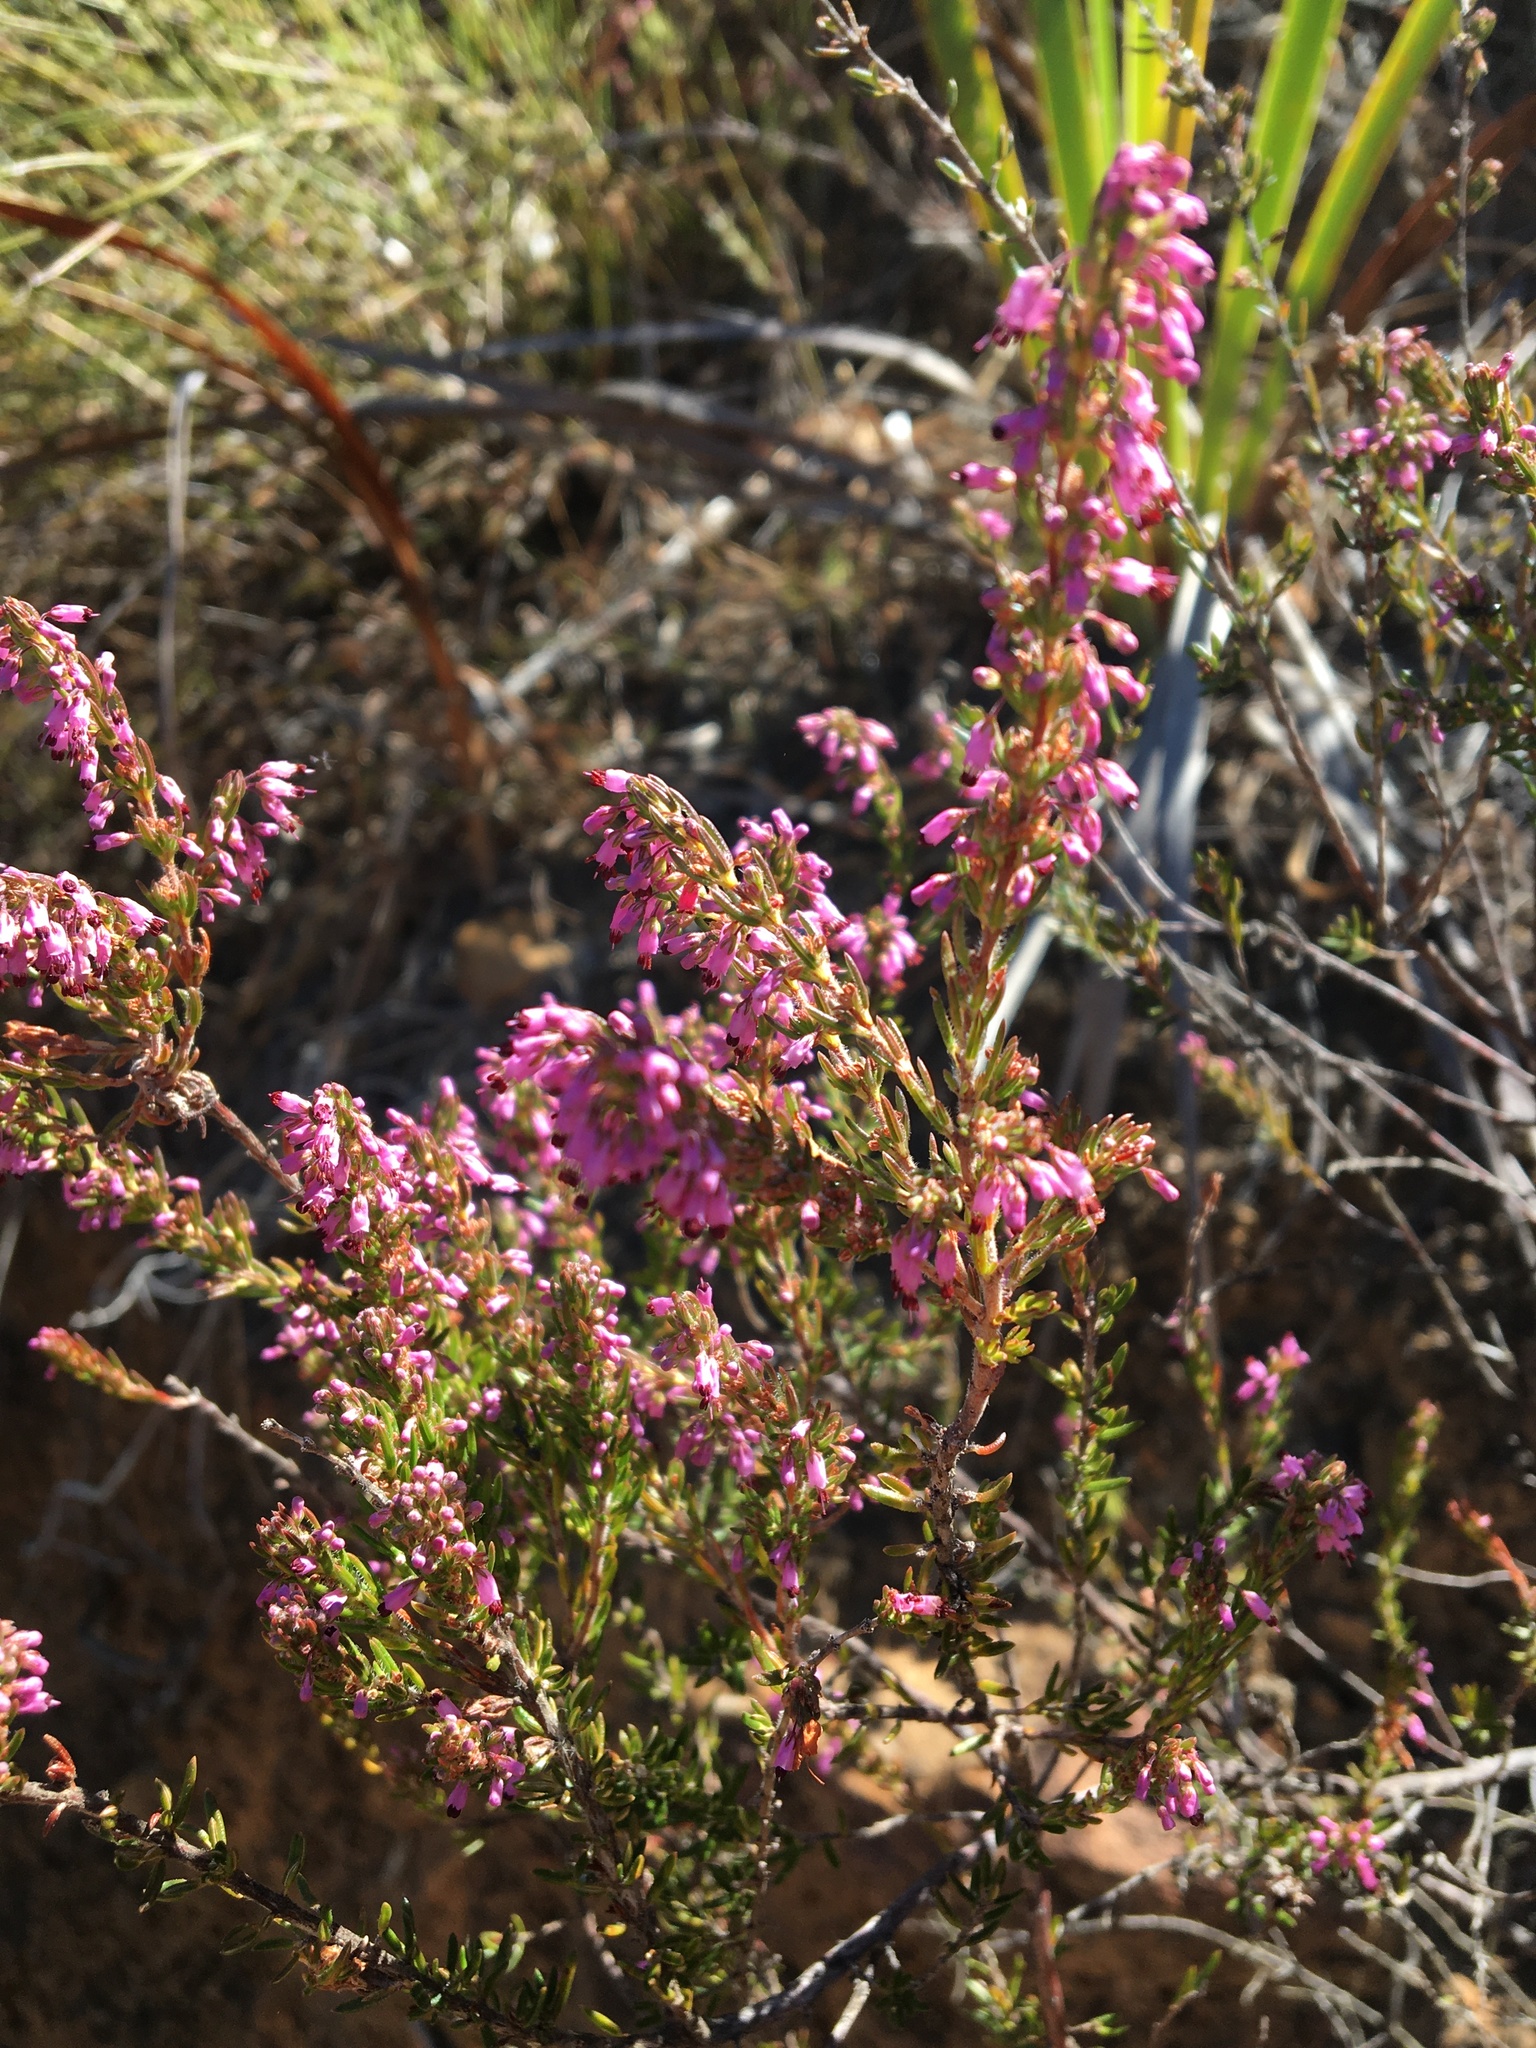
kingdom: Plantae
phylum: Tracheophyta
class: Magnoliopsida
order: Ericales
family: Ericaceae
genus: Erica
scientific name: Erica nudiflora
